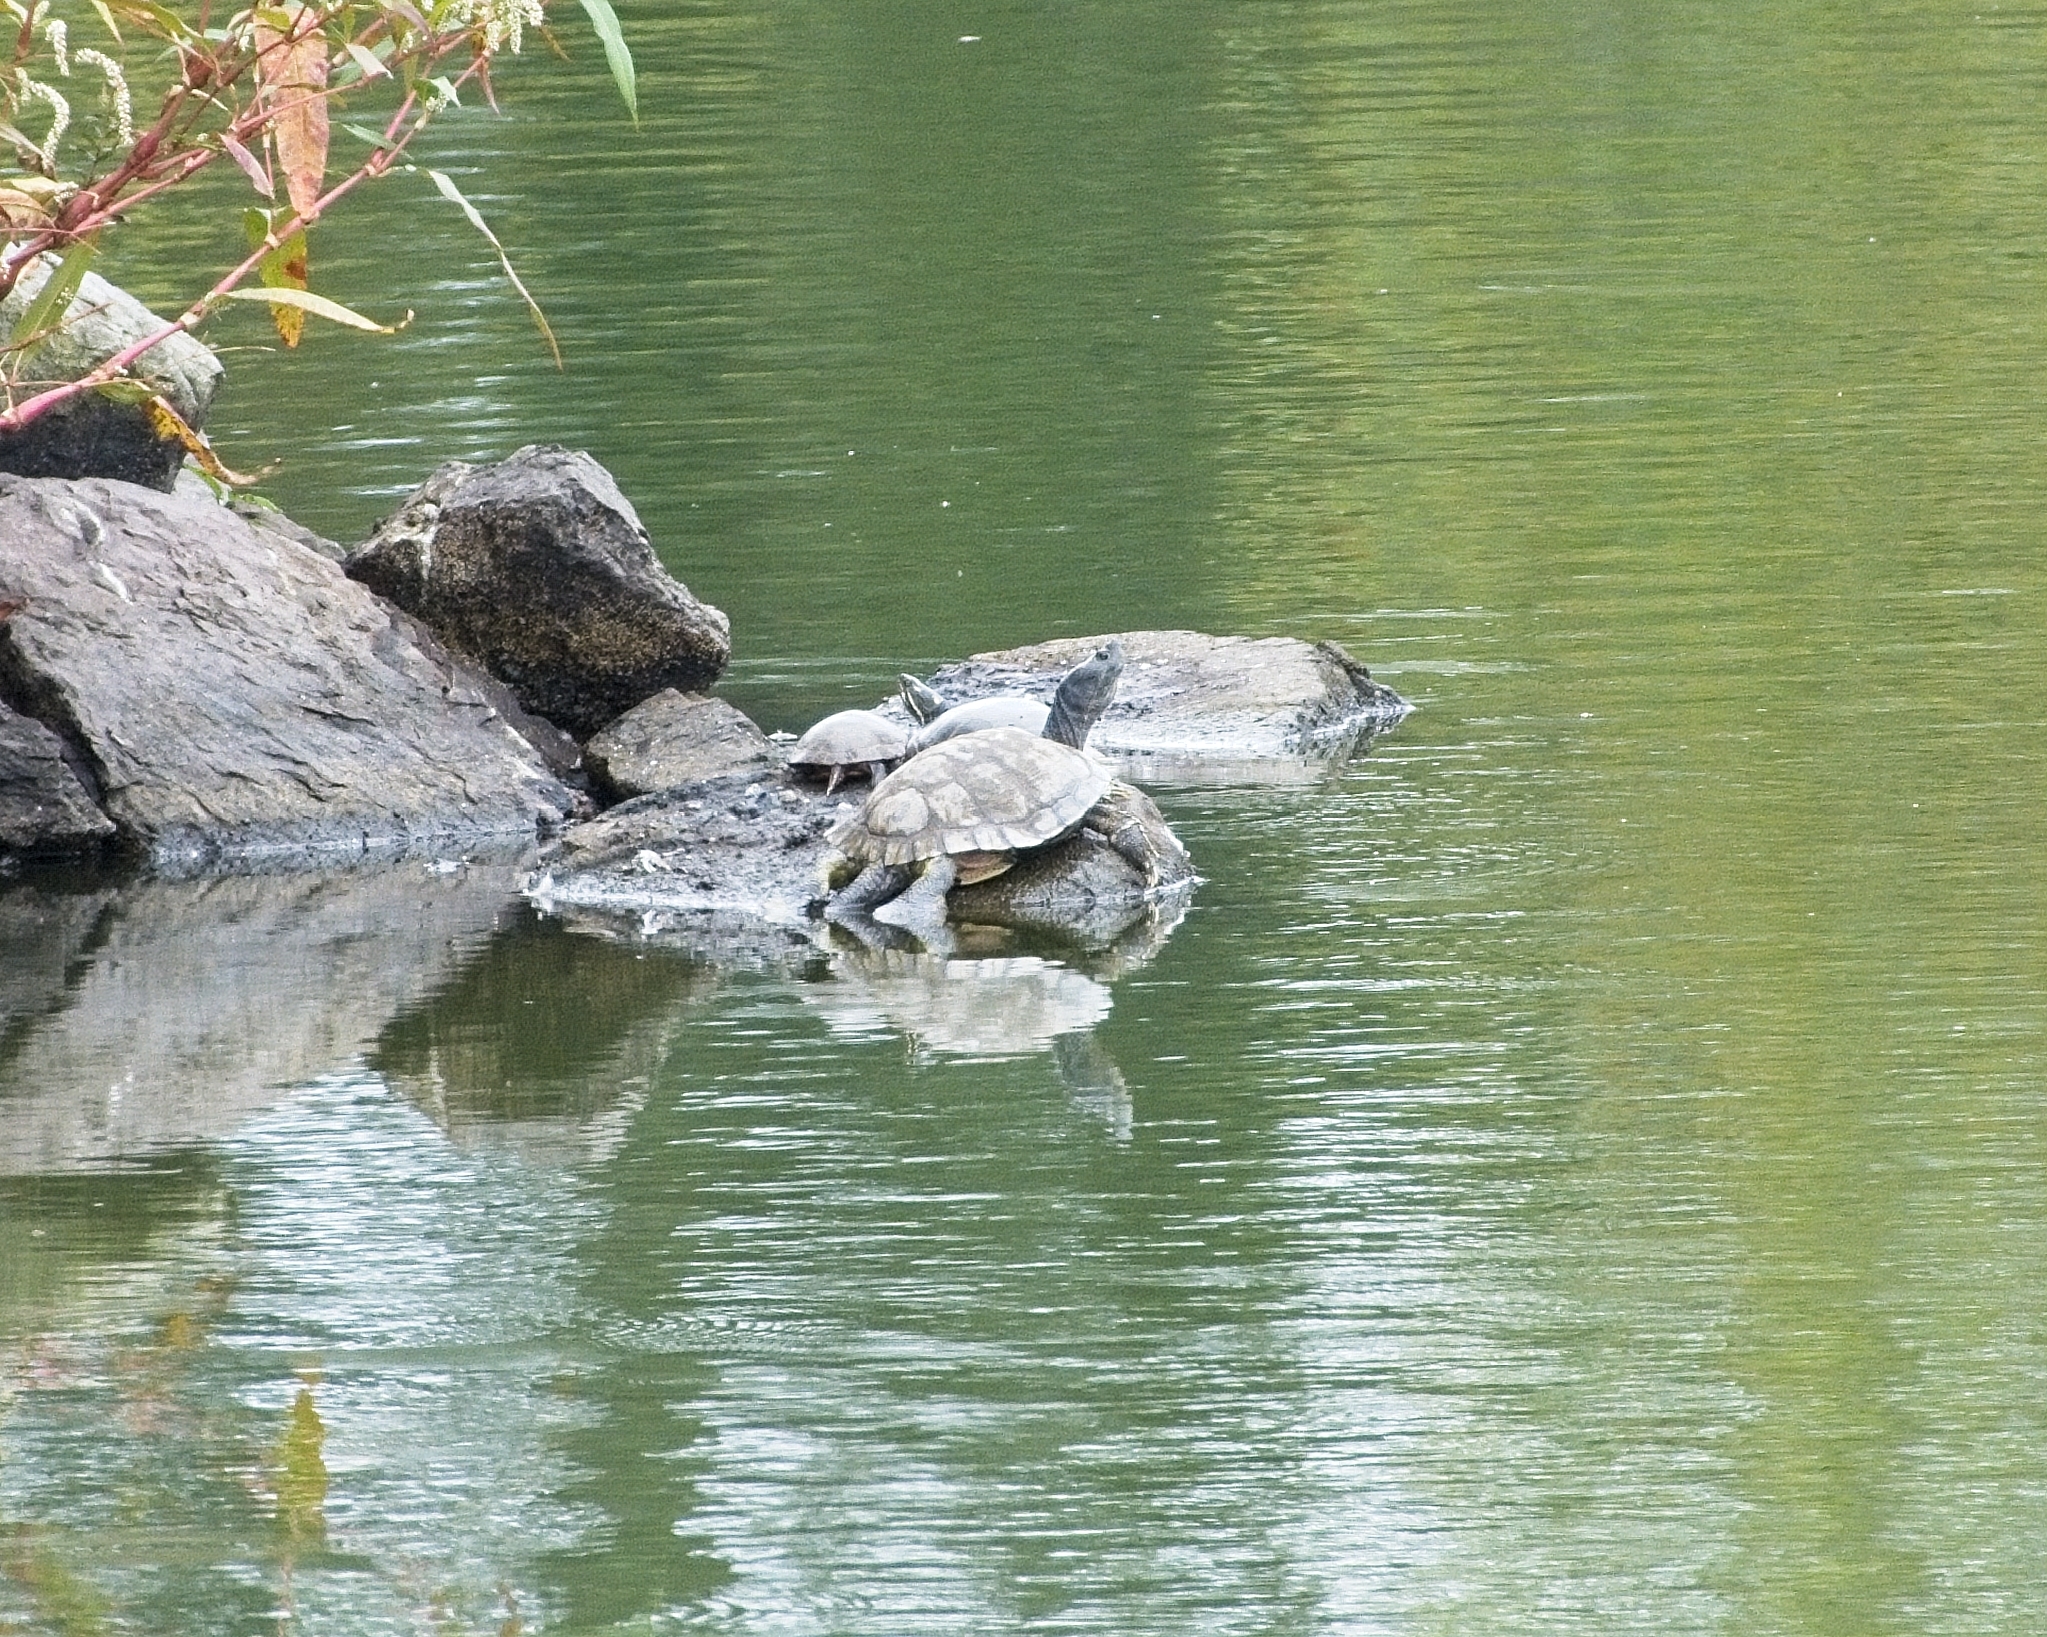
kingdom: Animalia
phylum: Chordata
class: Testudines
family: Emydidae
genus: Trachemys
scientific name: Trachemys scripta
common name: Slider
